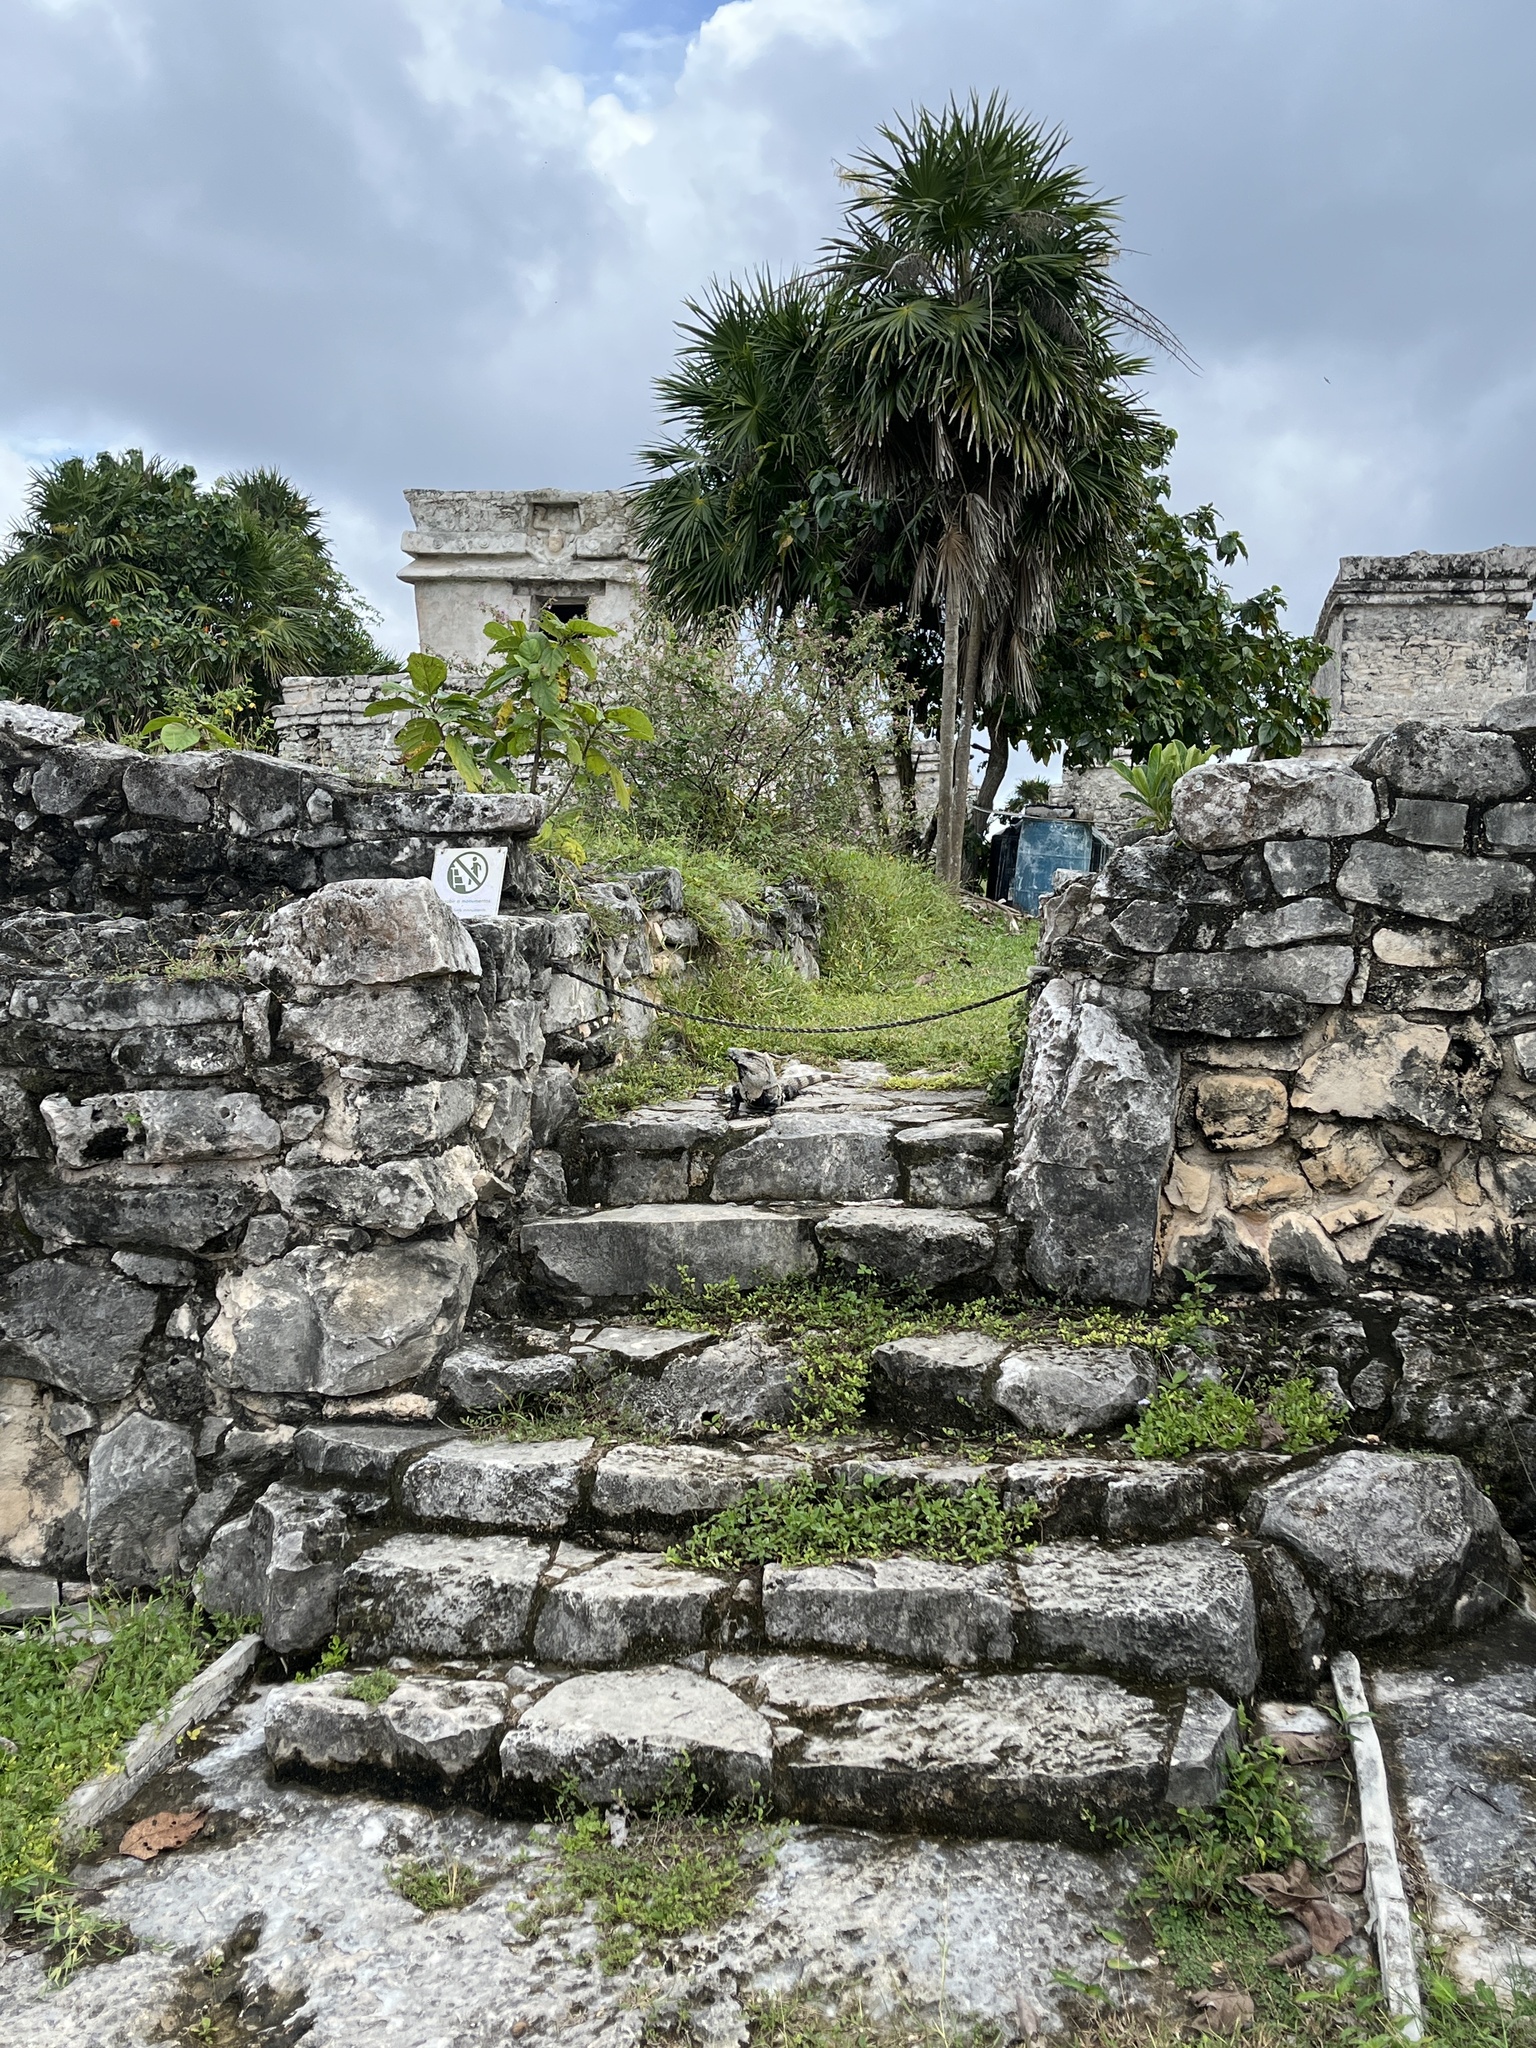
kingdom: Animalia
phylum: Chordata
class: Squamata
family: Iguanidae
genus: Ctenosaura
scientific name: Ctenosaura similis
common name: Black spiny-tailed iguana
